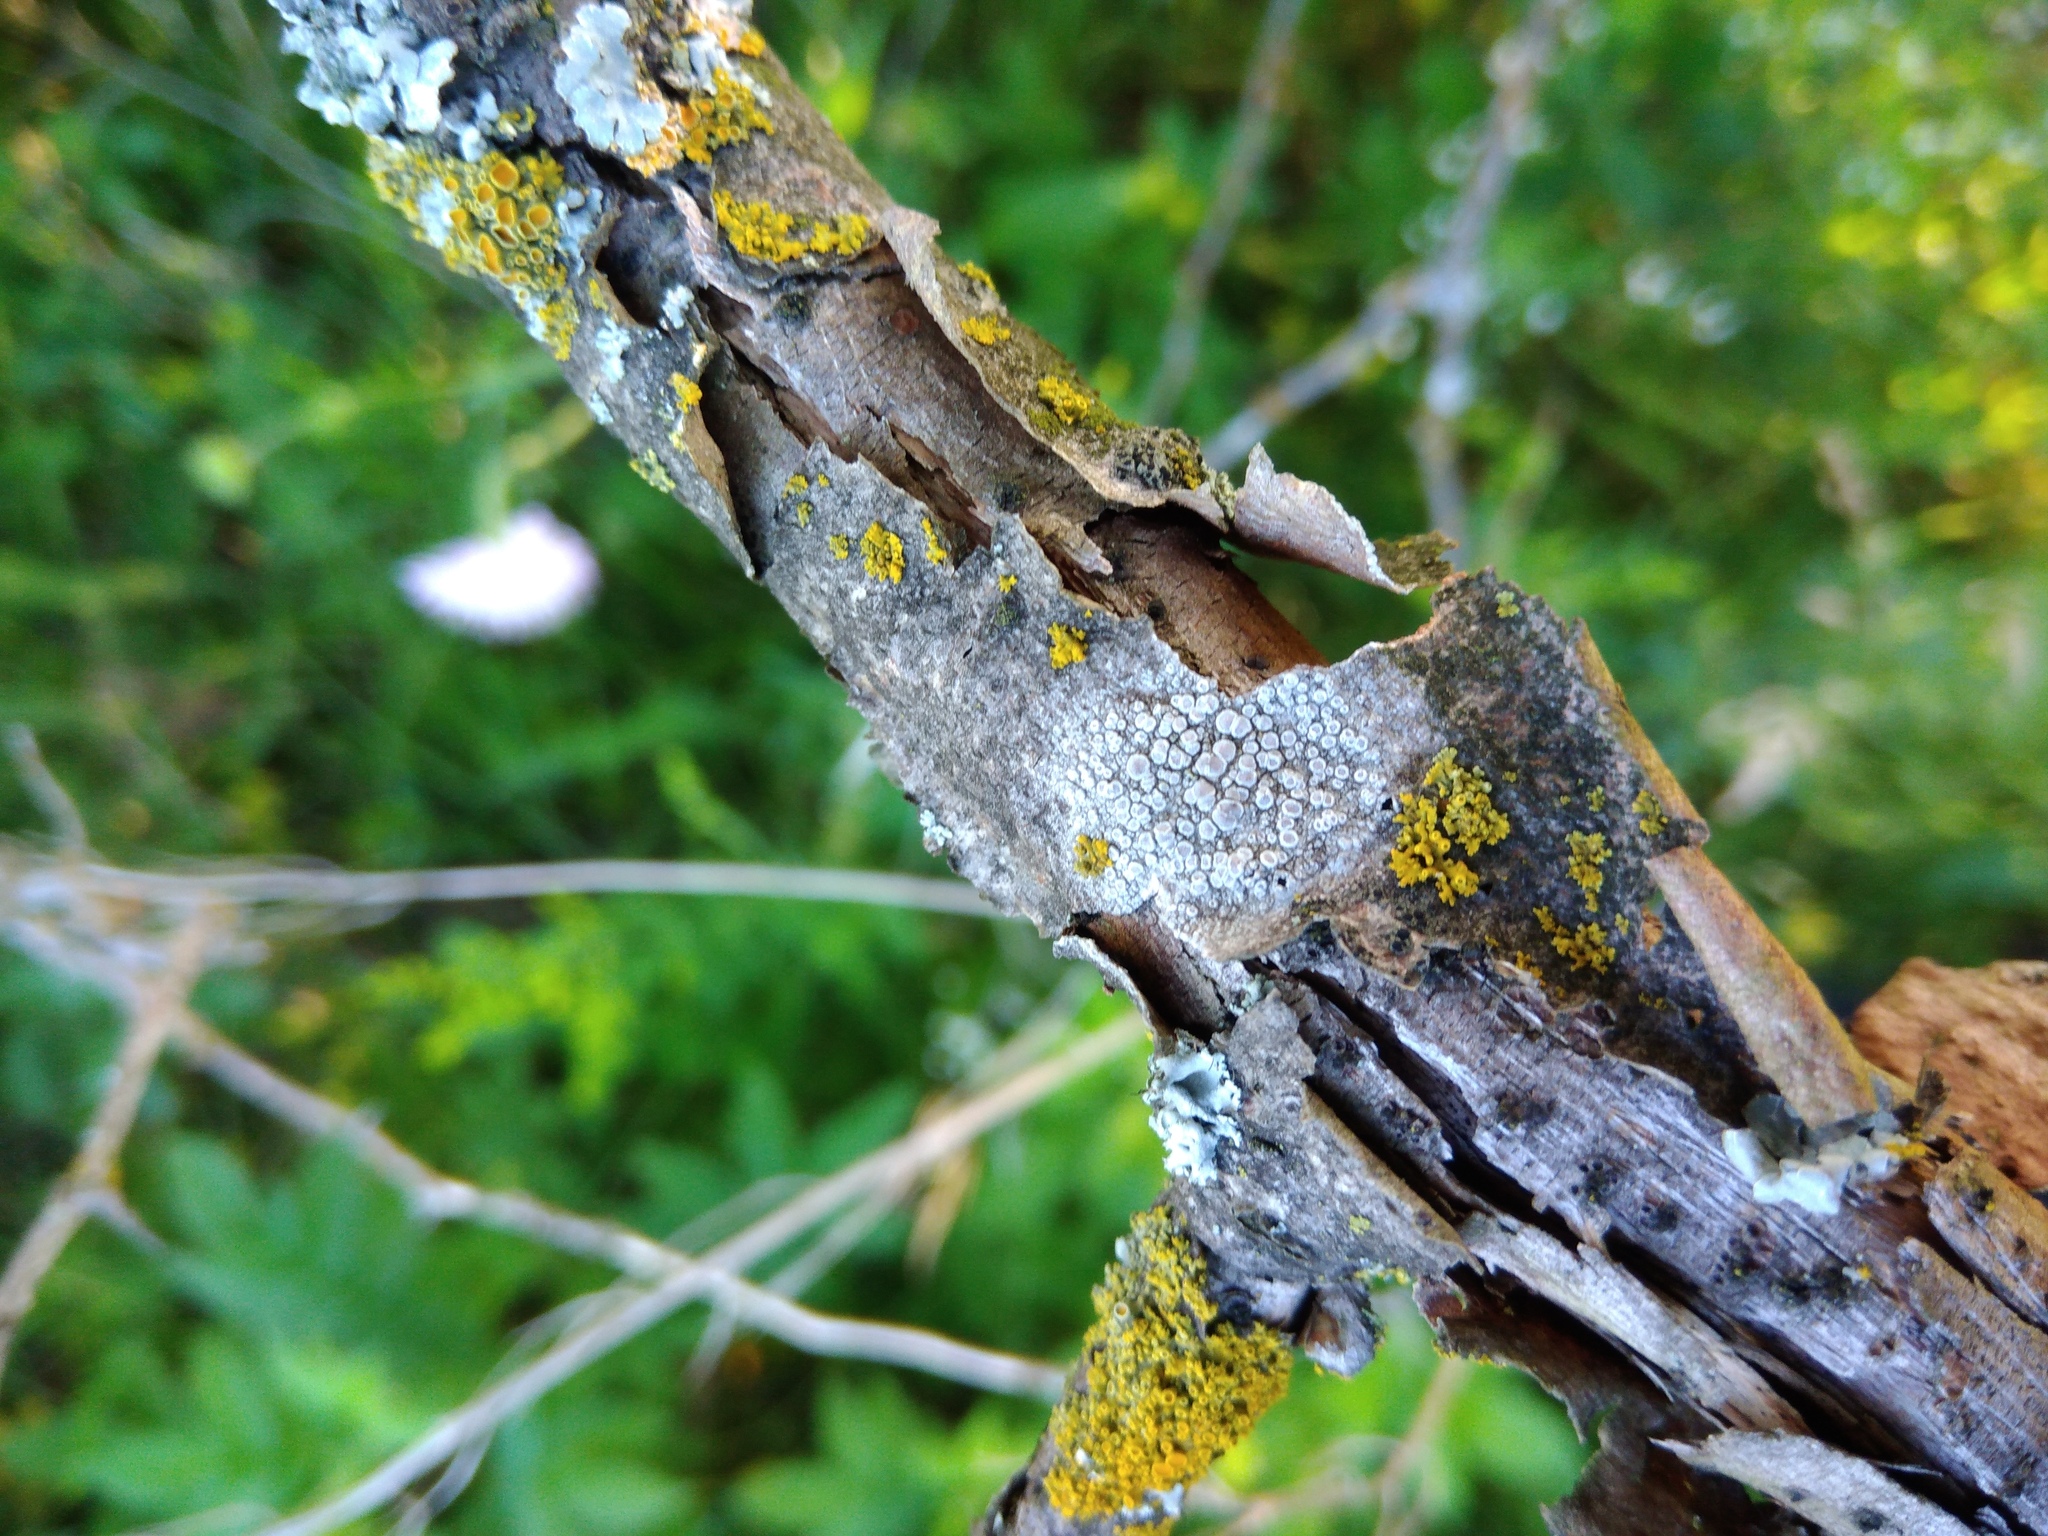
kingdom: Fungi
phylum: Ascomycota
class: Lecanoromycetes
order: Lecanorales
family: Lecanoraceae
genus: Glaucomaria
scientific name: Glaucomaria carpinea
